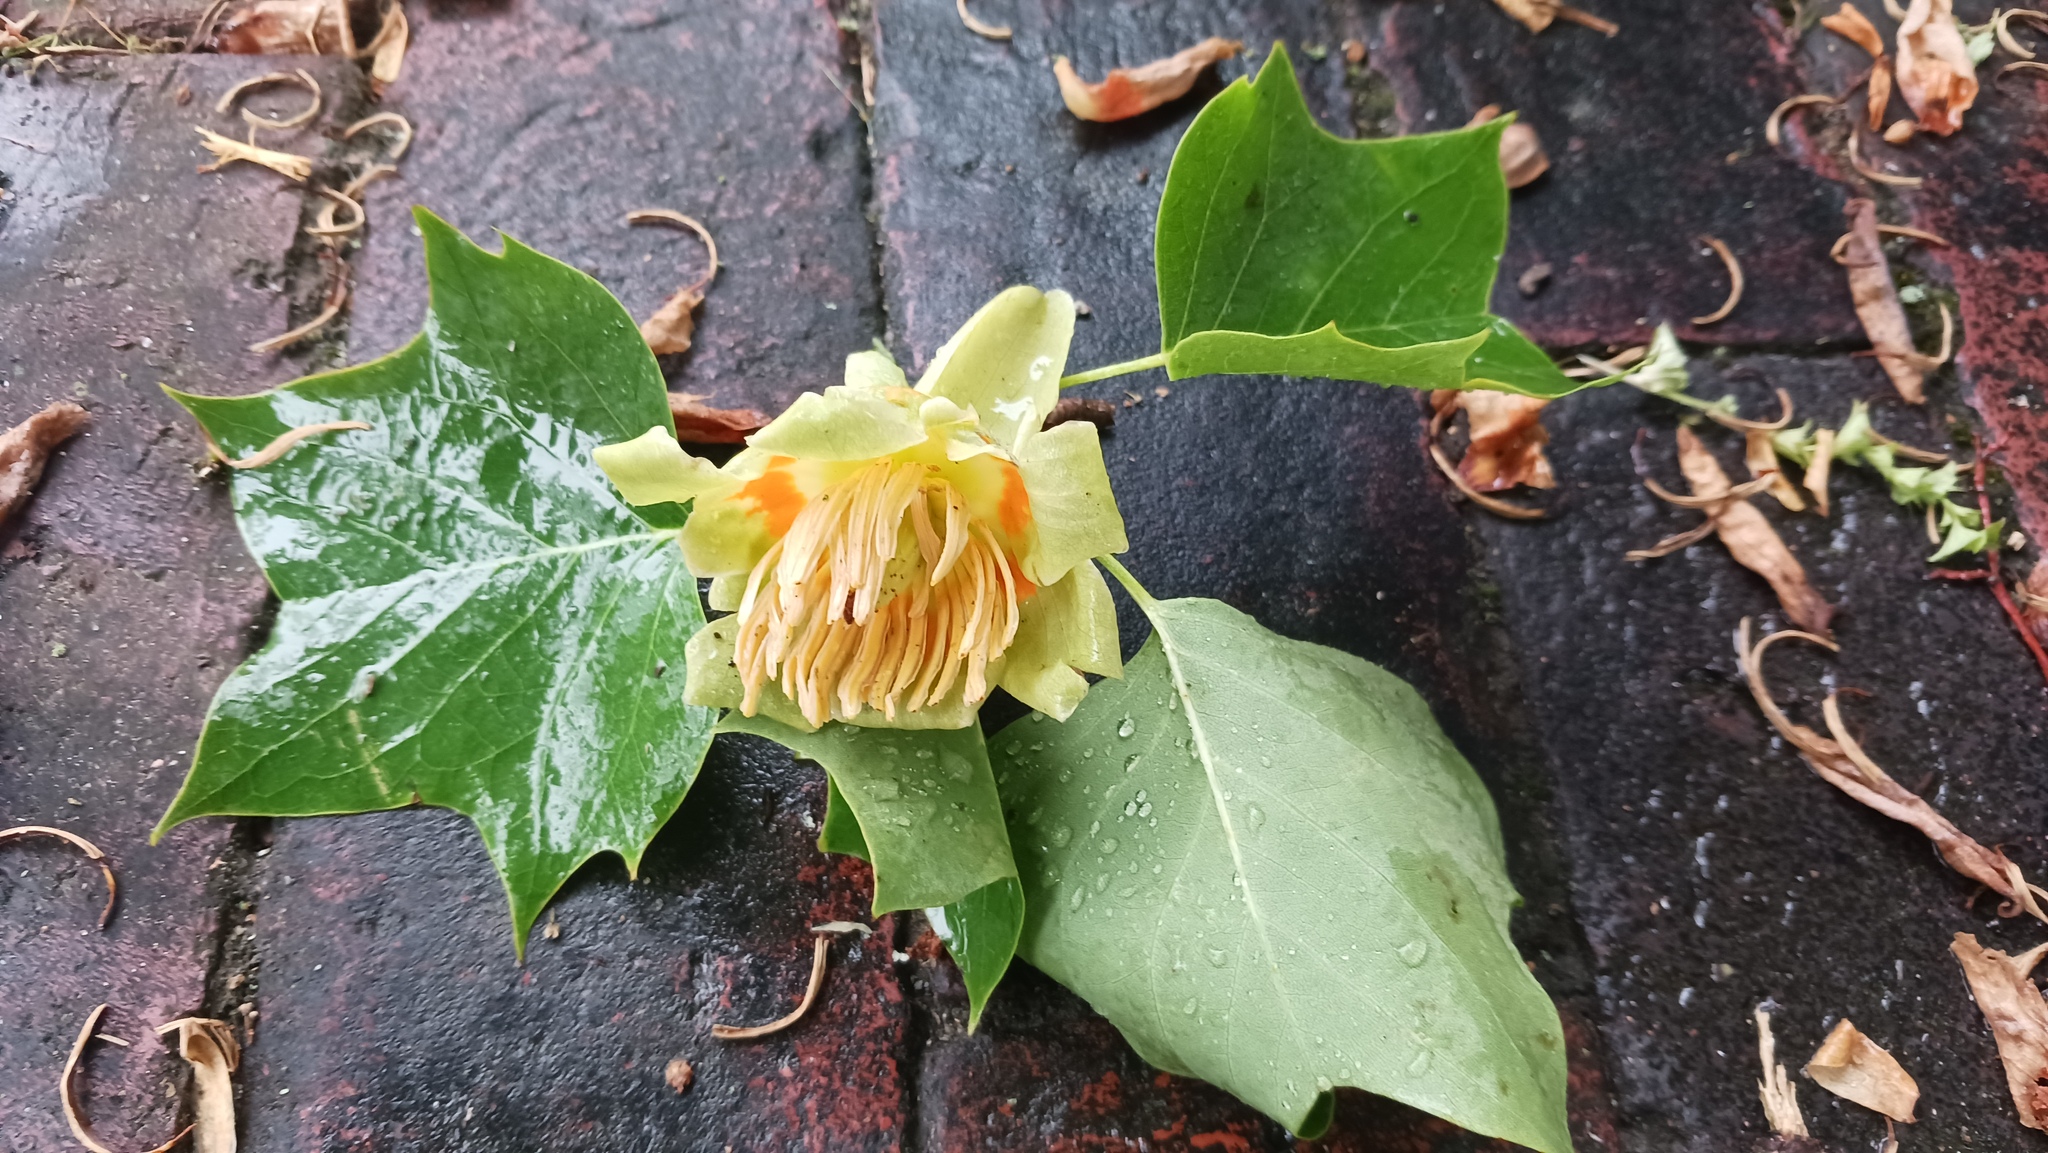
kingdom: Plantae
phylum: Tracheophyta
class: Magnoliopsida
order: Magnoliales
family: Magnoliaceae
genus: Liriodendron
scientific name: Liriodendron tulipifera
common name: Tulip tree
